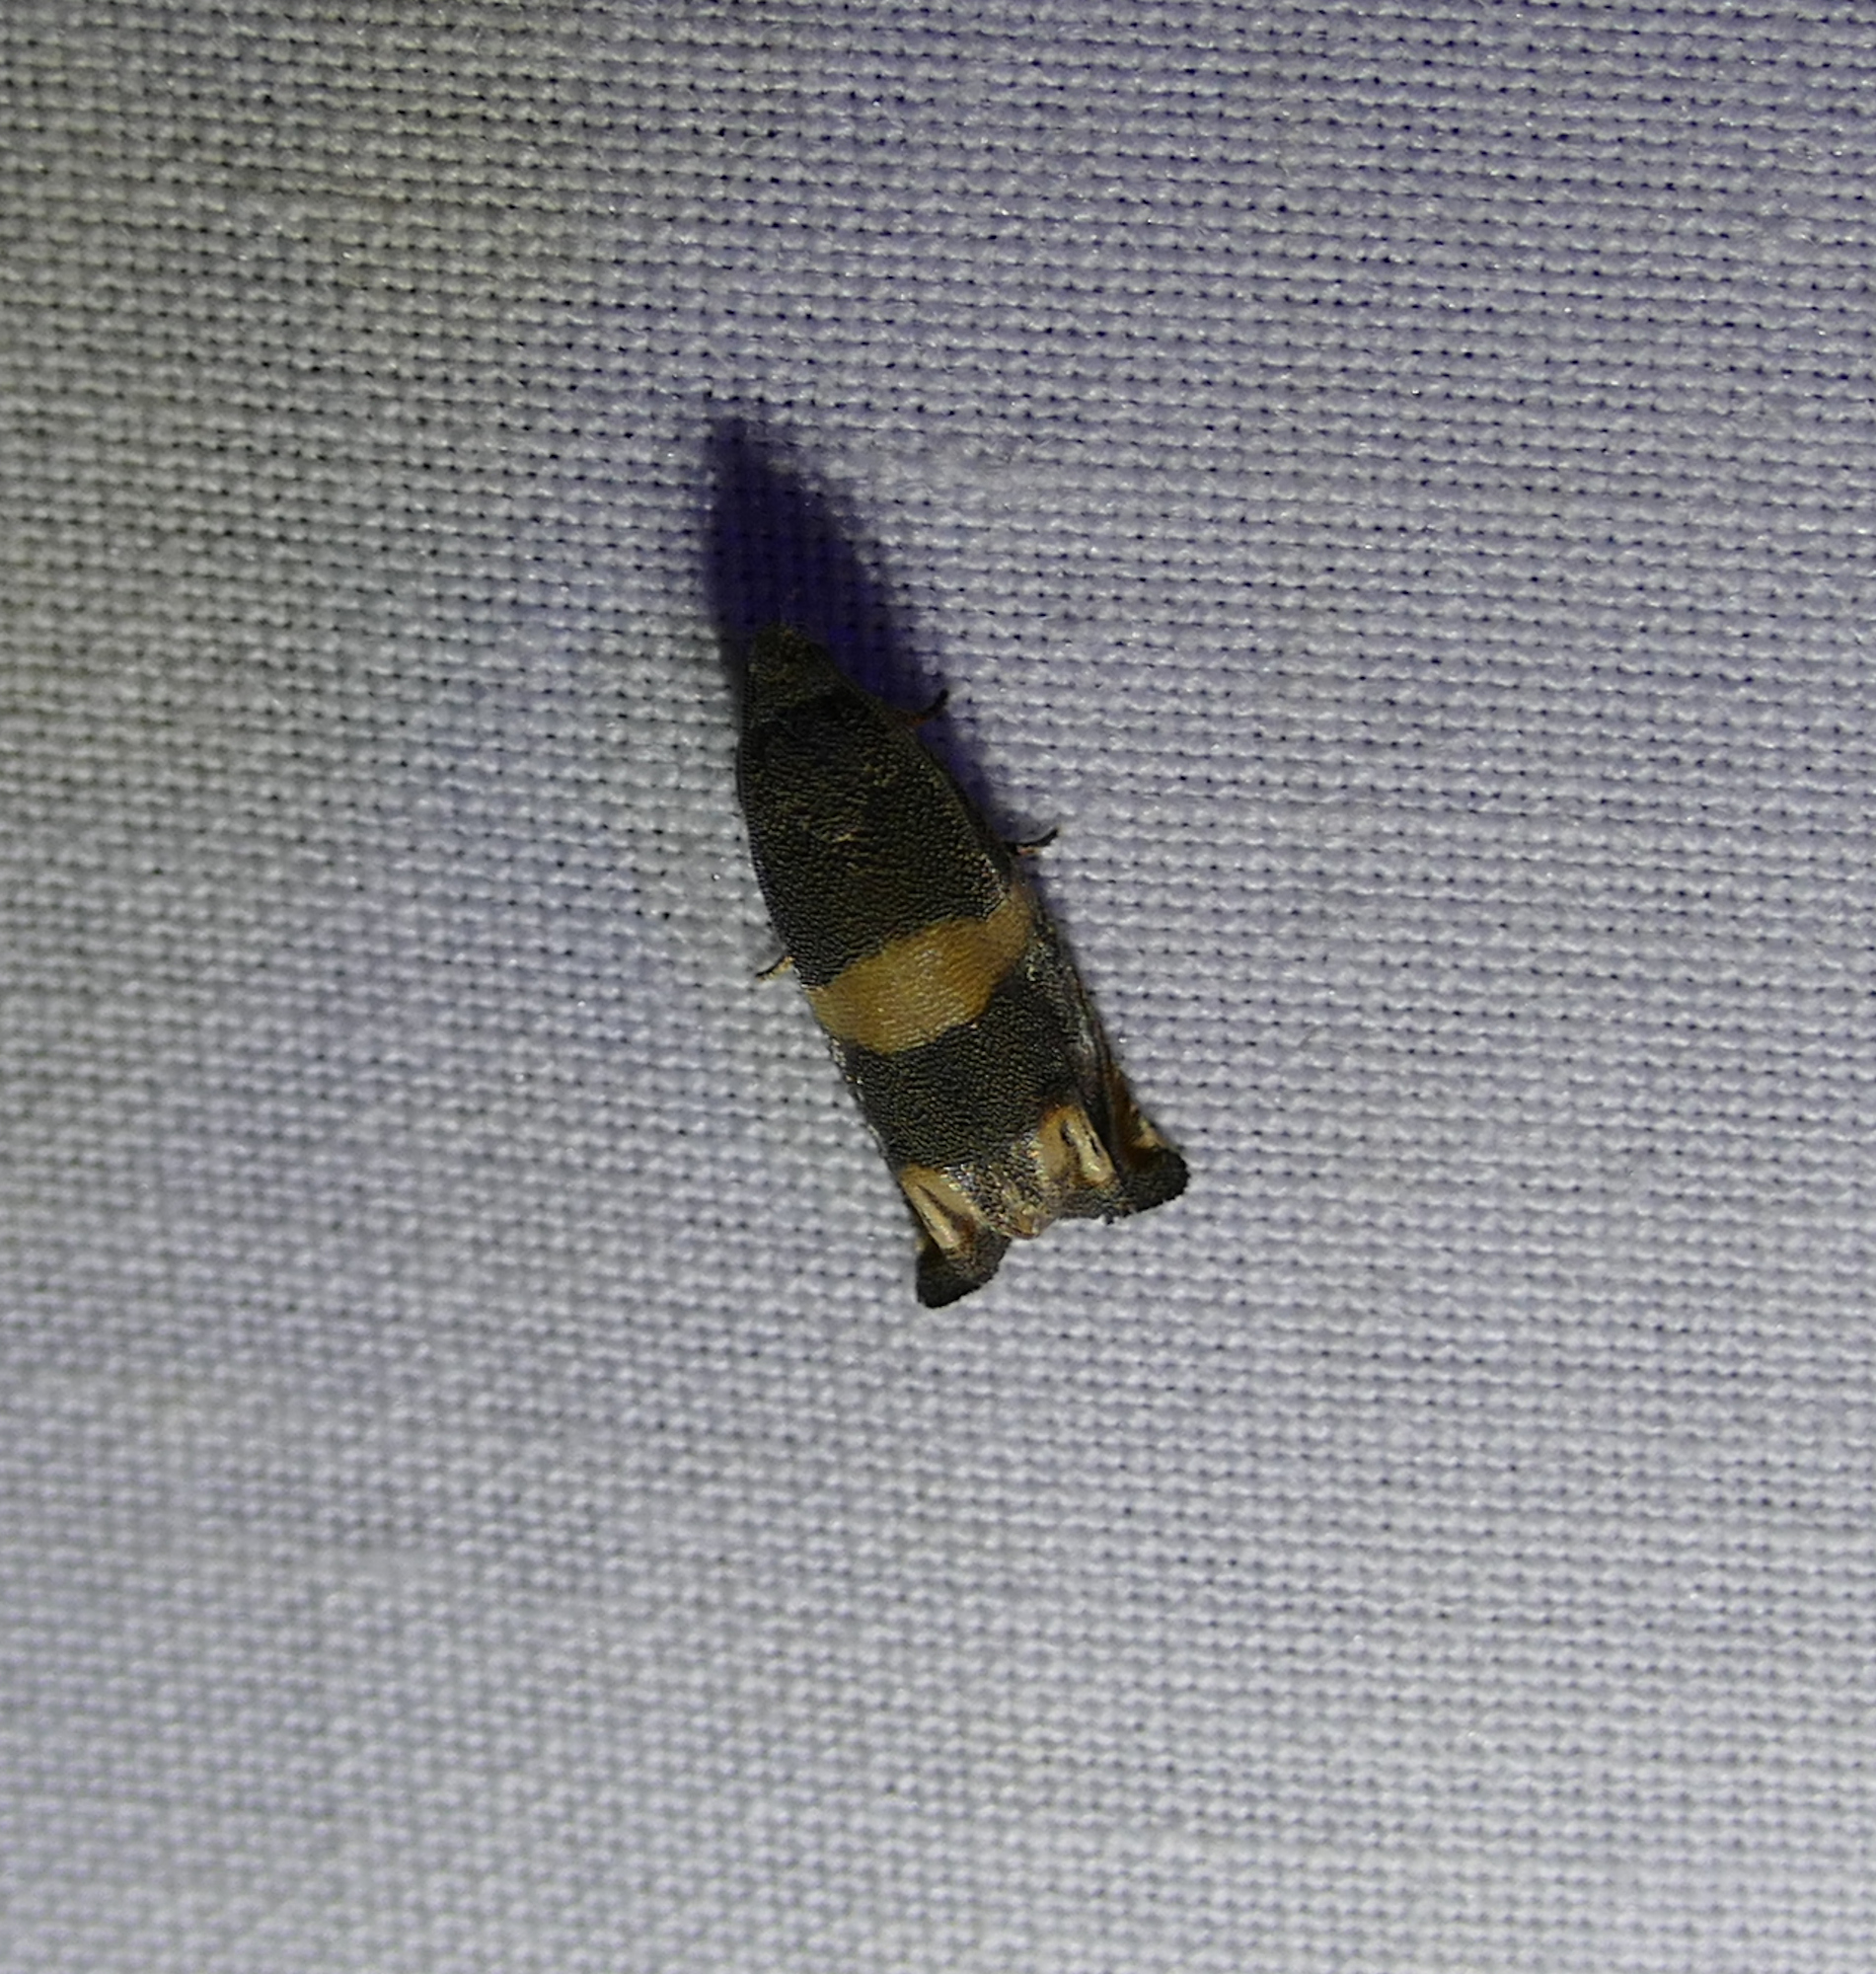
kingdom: Animalia
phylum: Arthropoda
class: Insecta
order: Lepidoptera
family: Tortricidae
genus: Epiblema
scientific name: Epiblema
